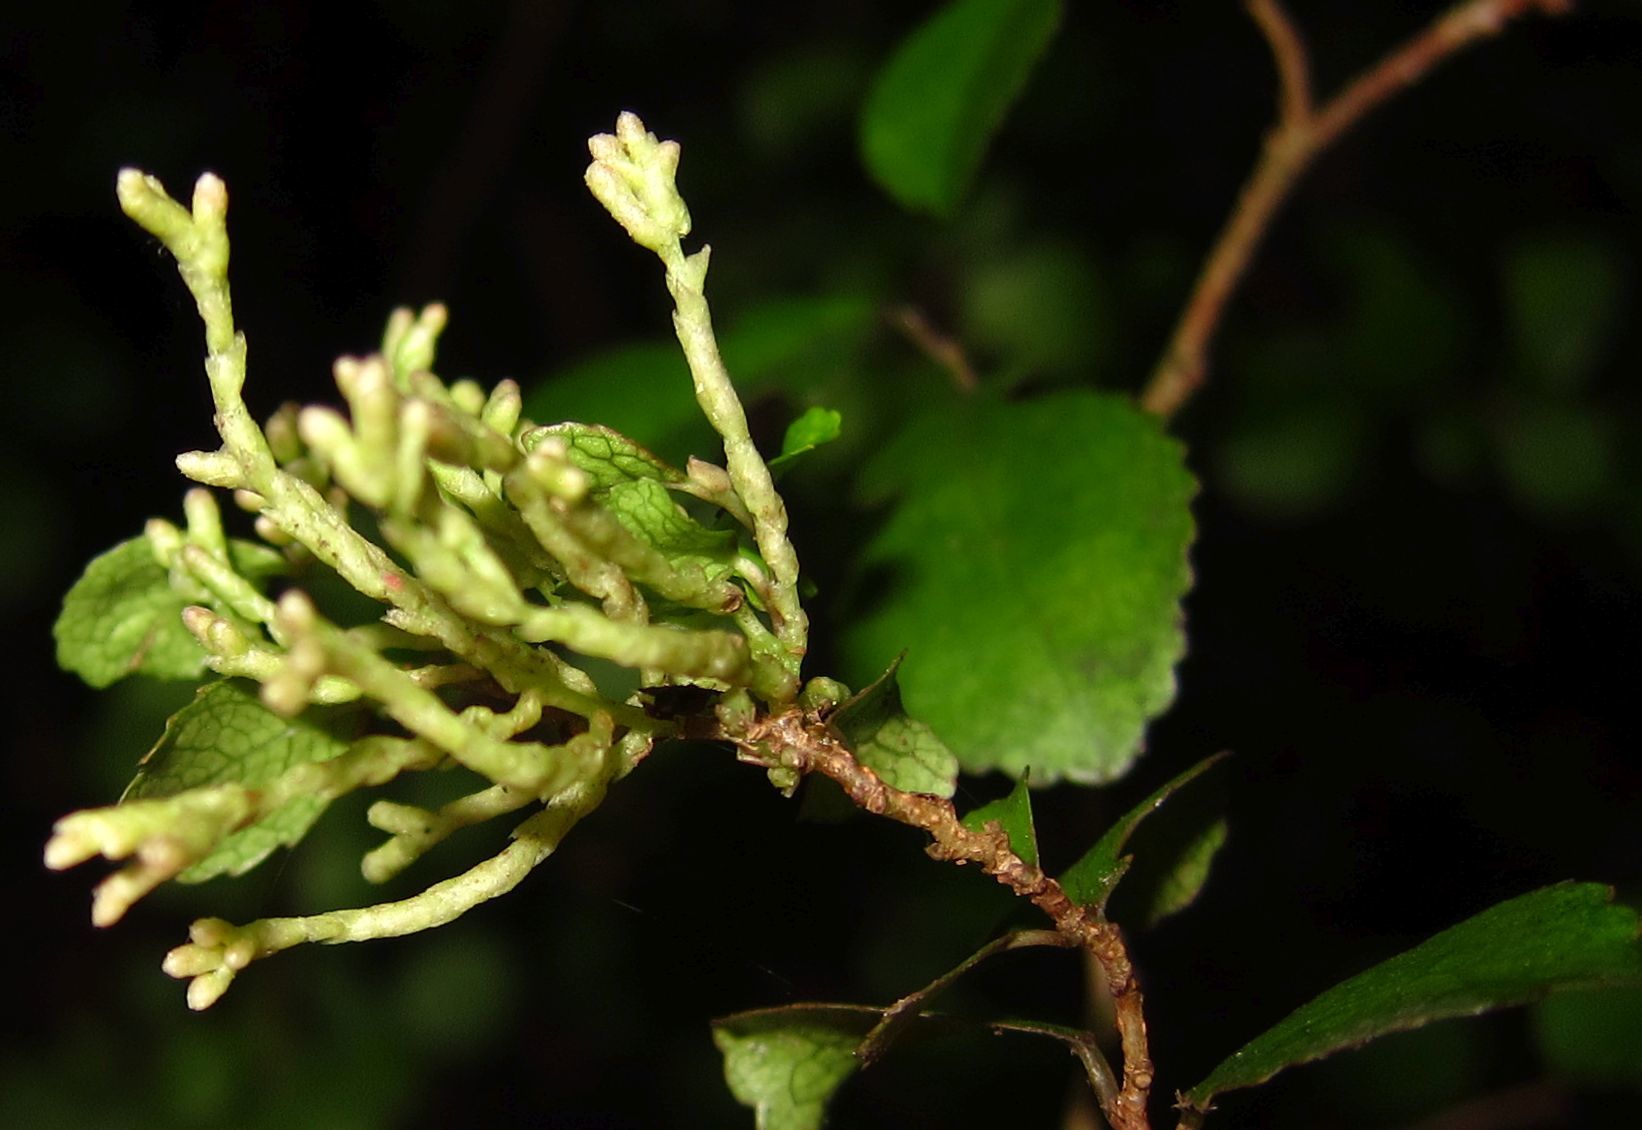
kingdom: Animalia
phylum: Arthropoda
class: Arachnida
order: Trombidiformes
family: Eriophyidae
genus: Eriophyes
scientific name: Eriophyes
